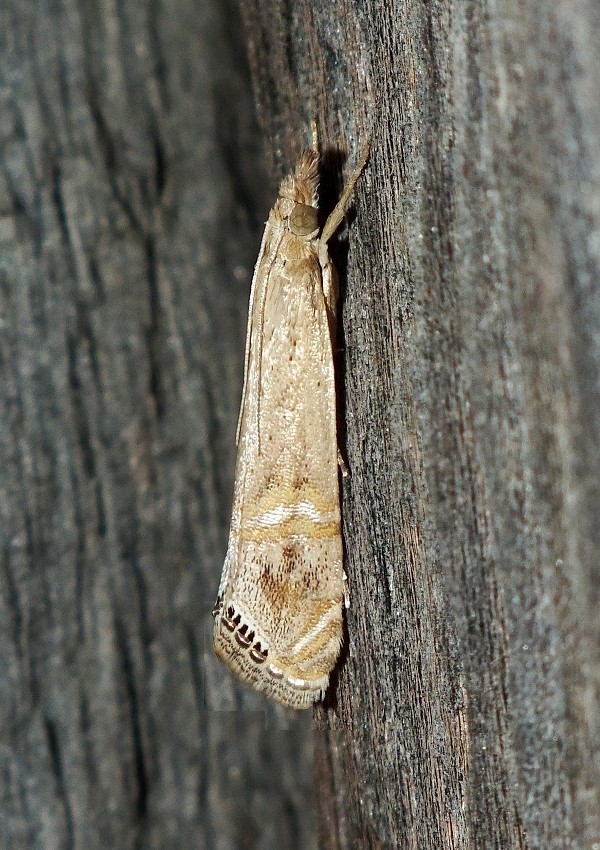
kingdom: Animalia
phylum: Arthropoda
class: Insecta
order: Lepidoptera
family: Crambidae
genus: Euchromius
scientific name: Euchromius ocellea
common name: Necklace veneer moth
